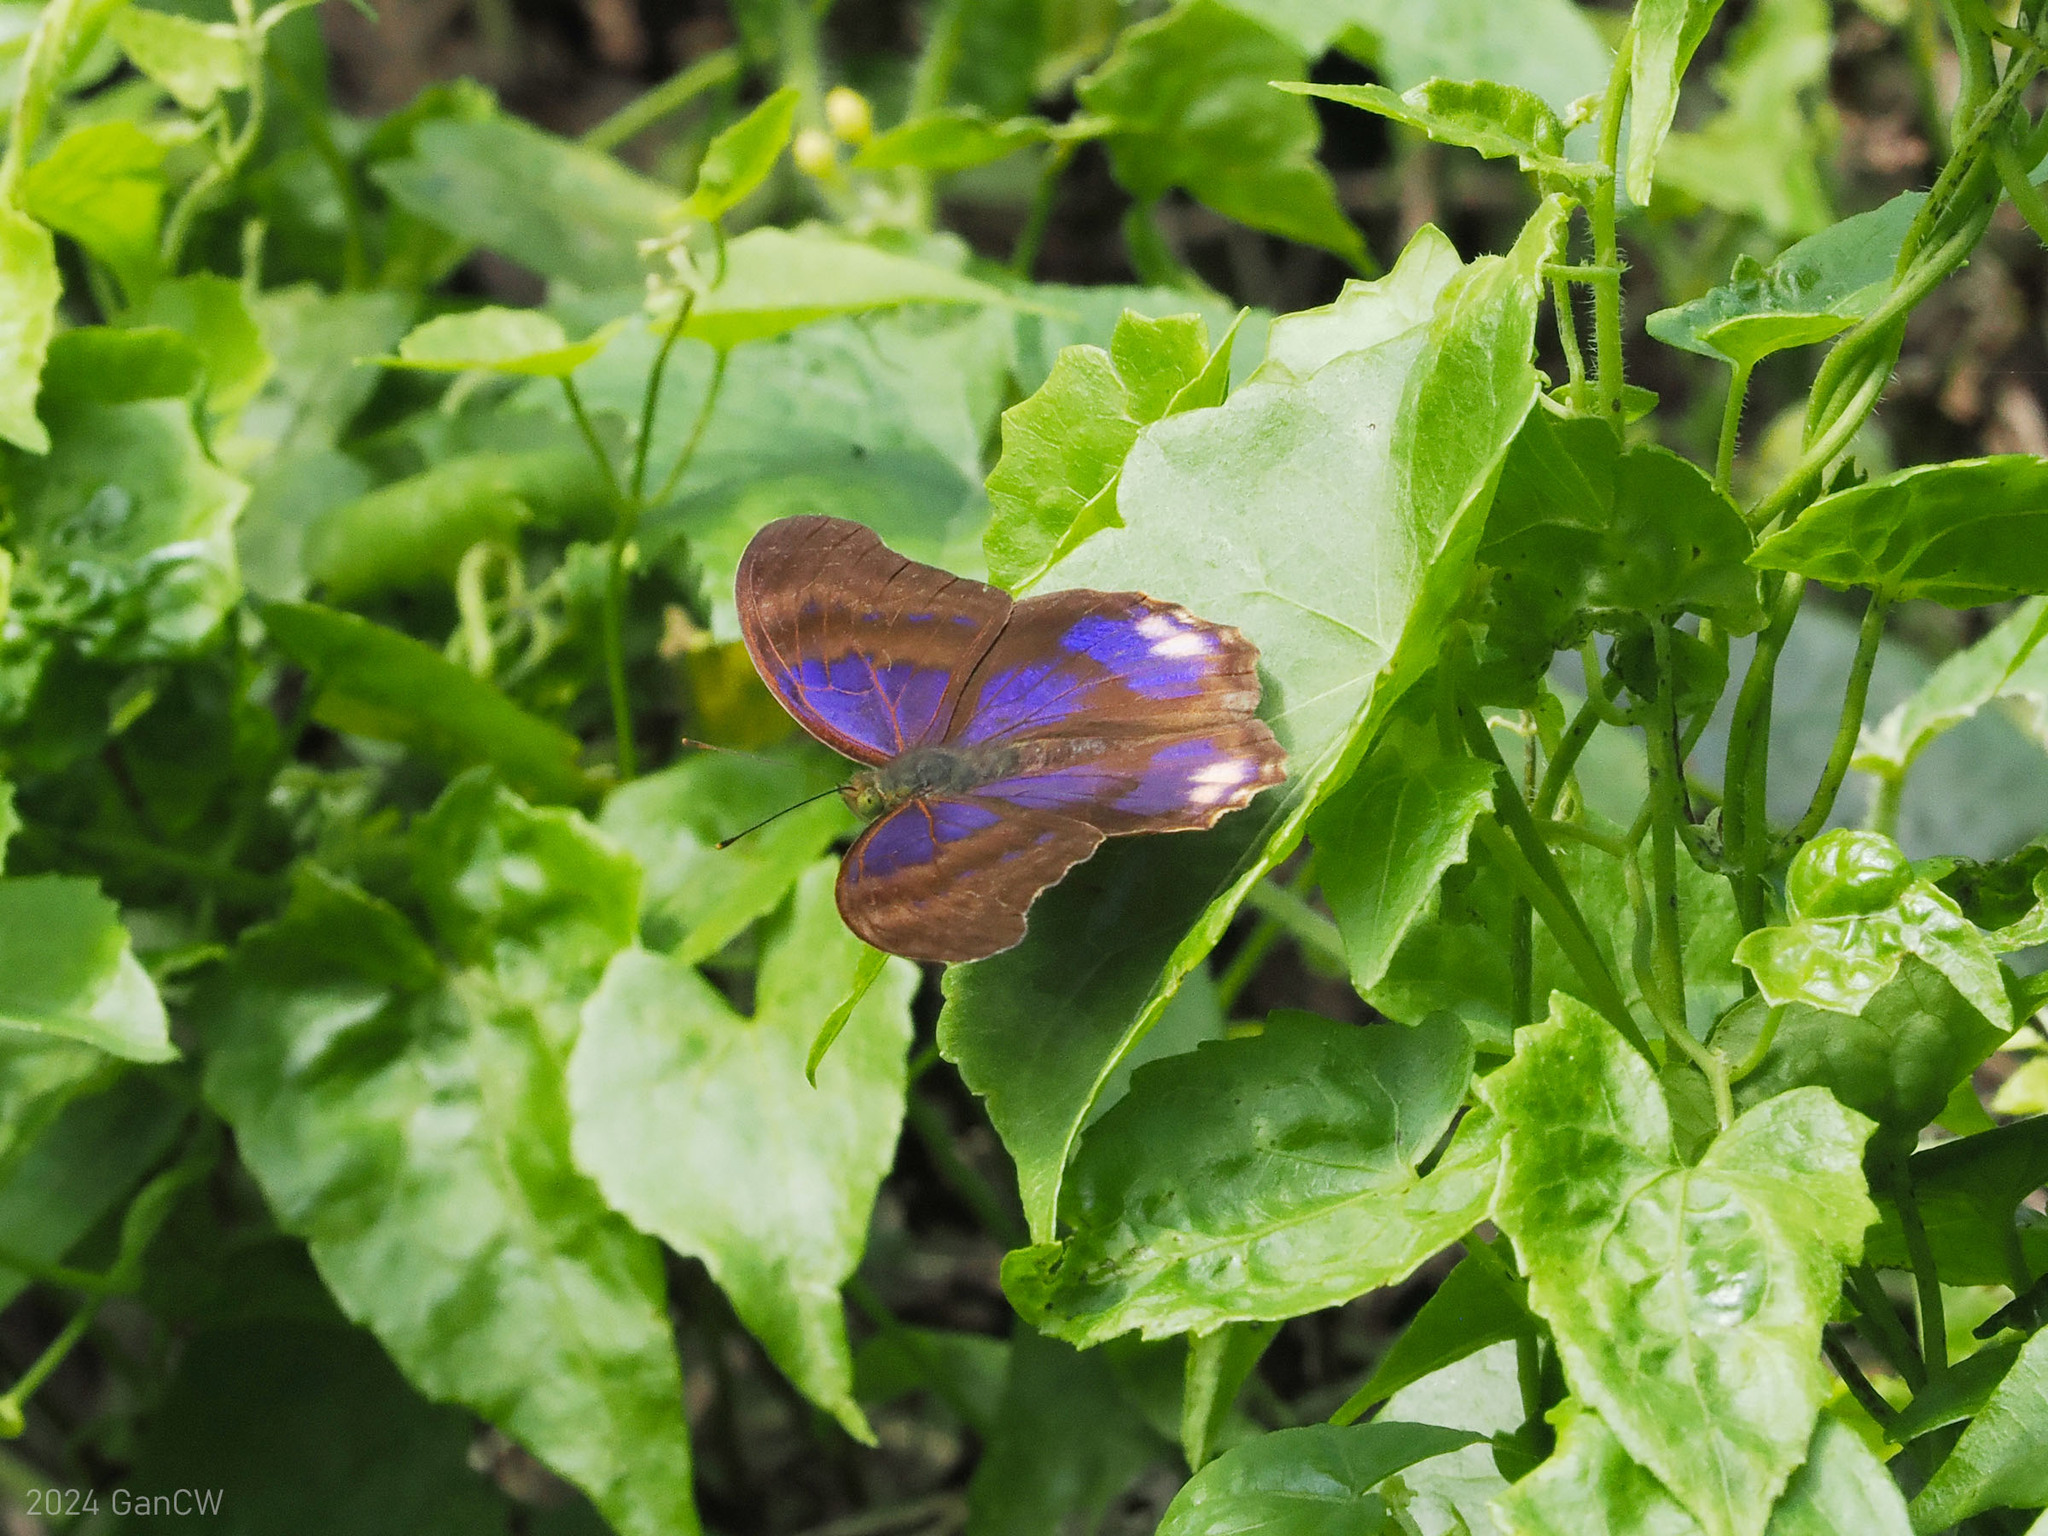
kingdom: Animalia
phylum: Arthropoda
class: Insecta
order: Lepidoptera
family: Nymphalidae
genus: Terinos
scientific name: Terinos terpander
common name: Royal assyrian
